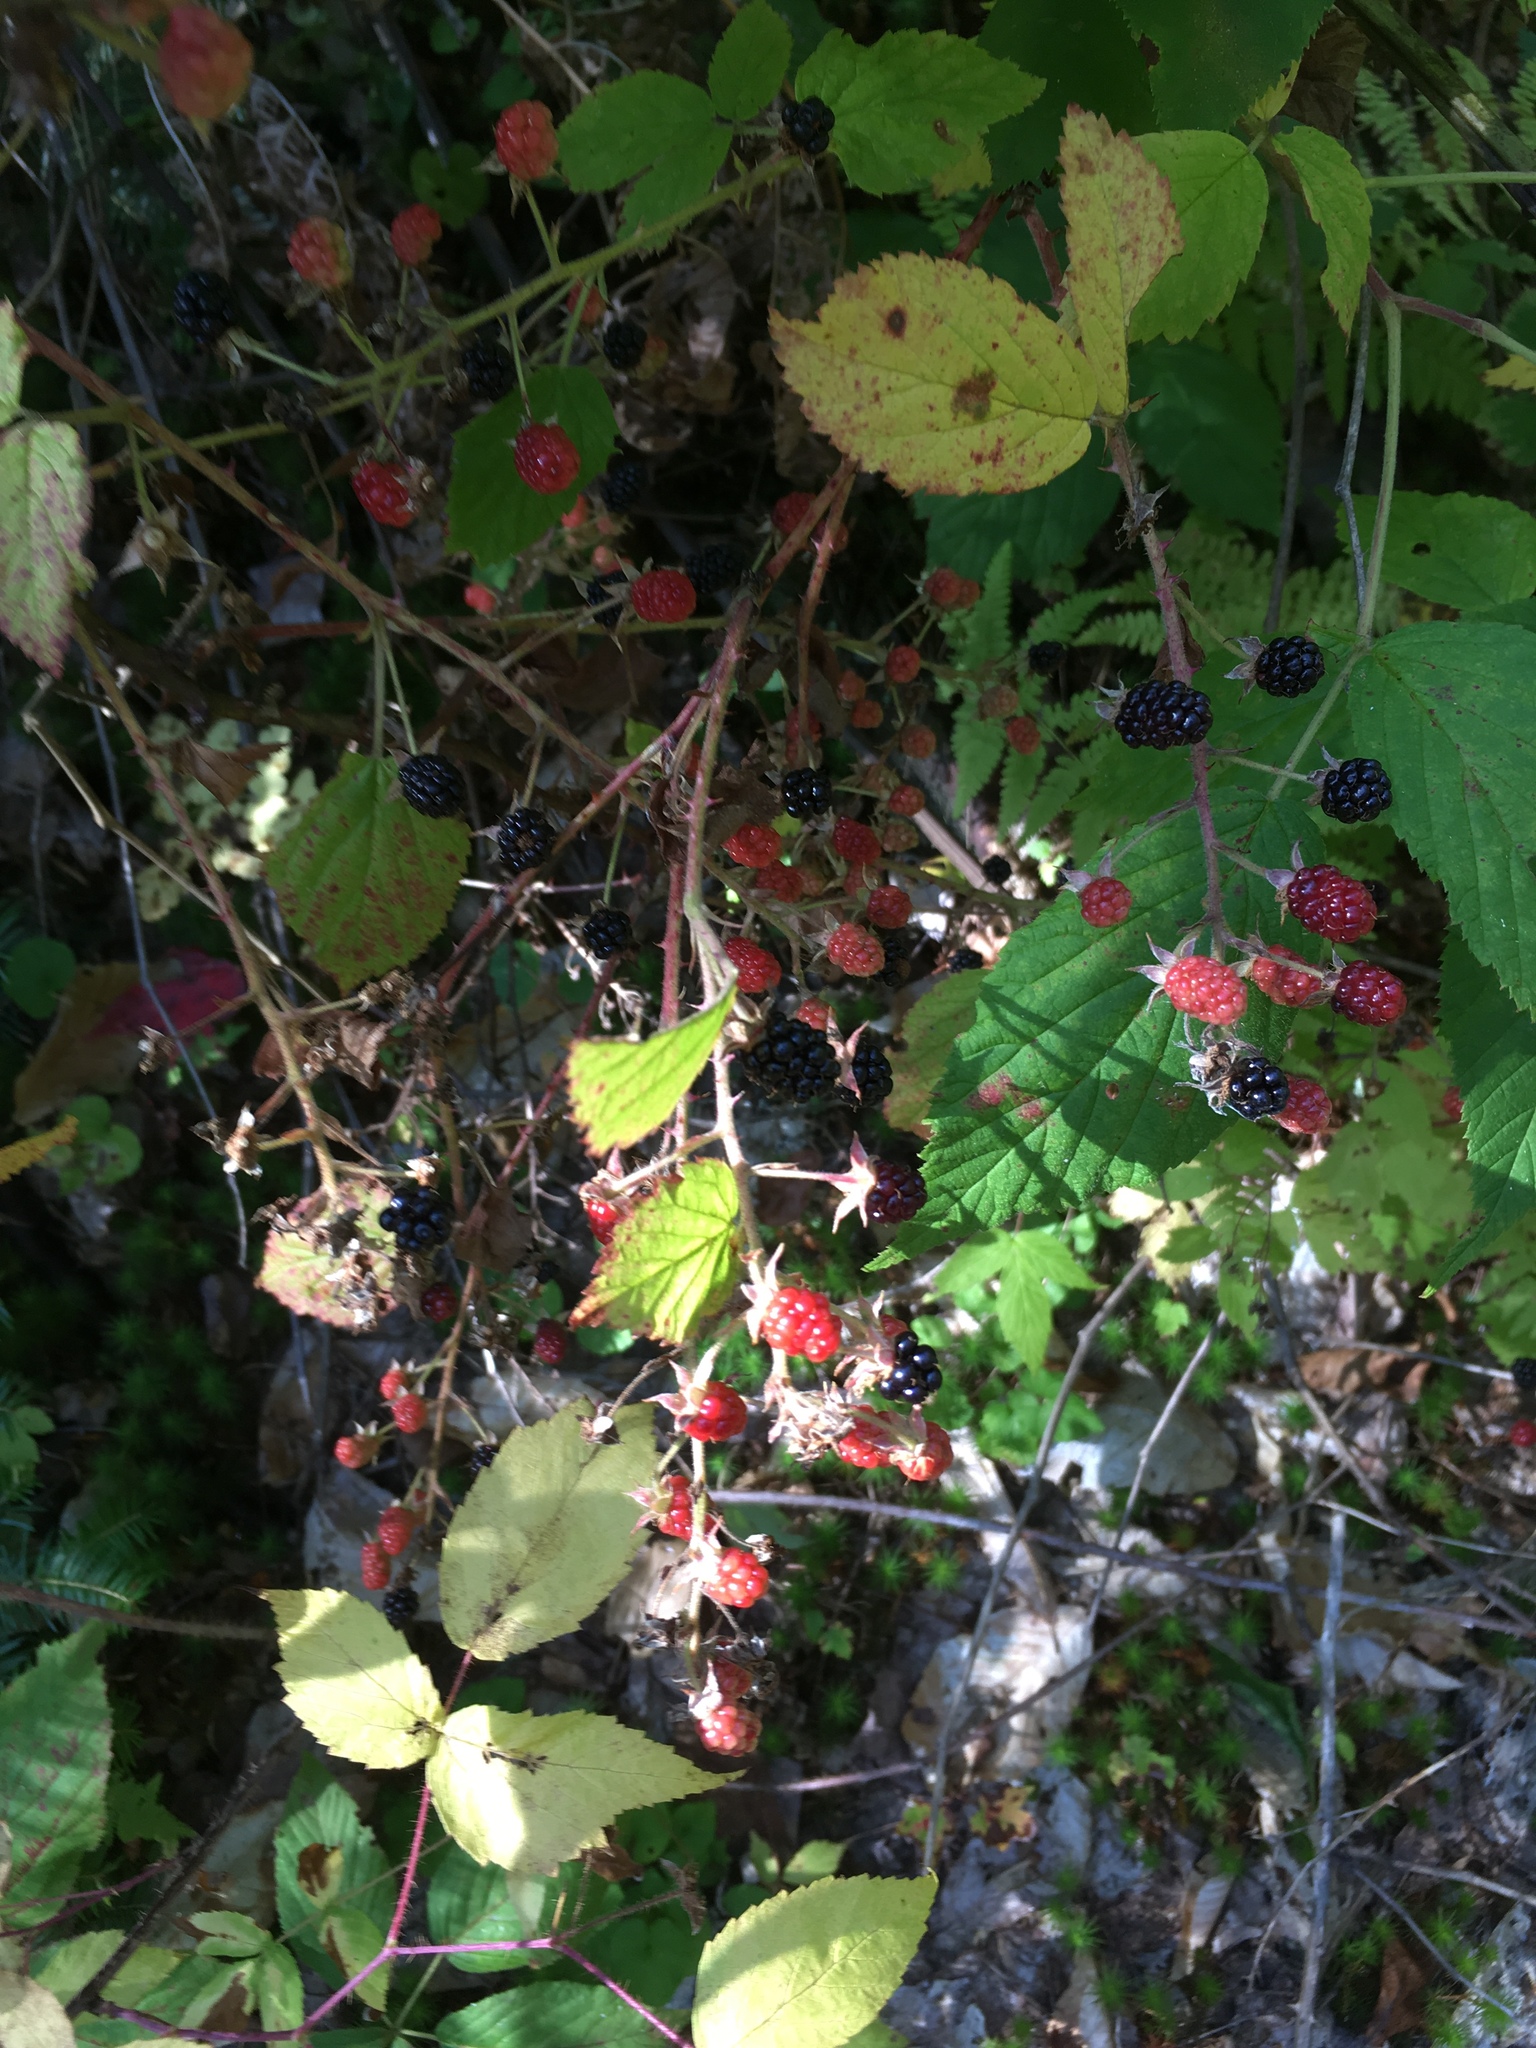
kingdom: Plantae
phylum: Tracheophyta
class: Magnoliopsida
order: Rosales
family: Rosaceae
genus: Rubus
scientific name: Rubus occidentalis
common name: Black raspberry
